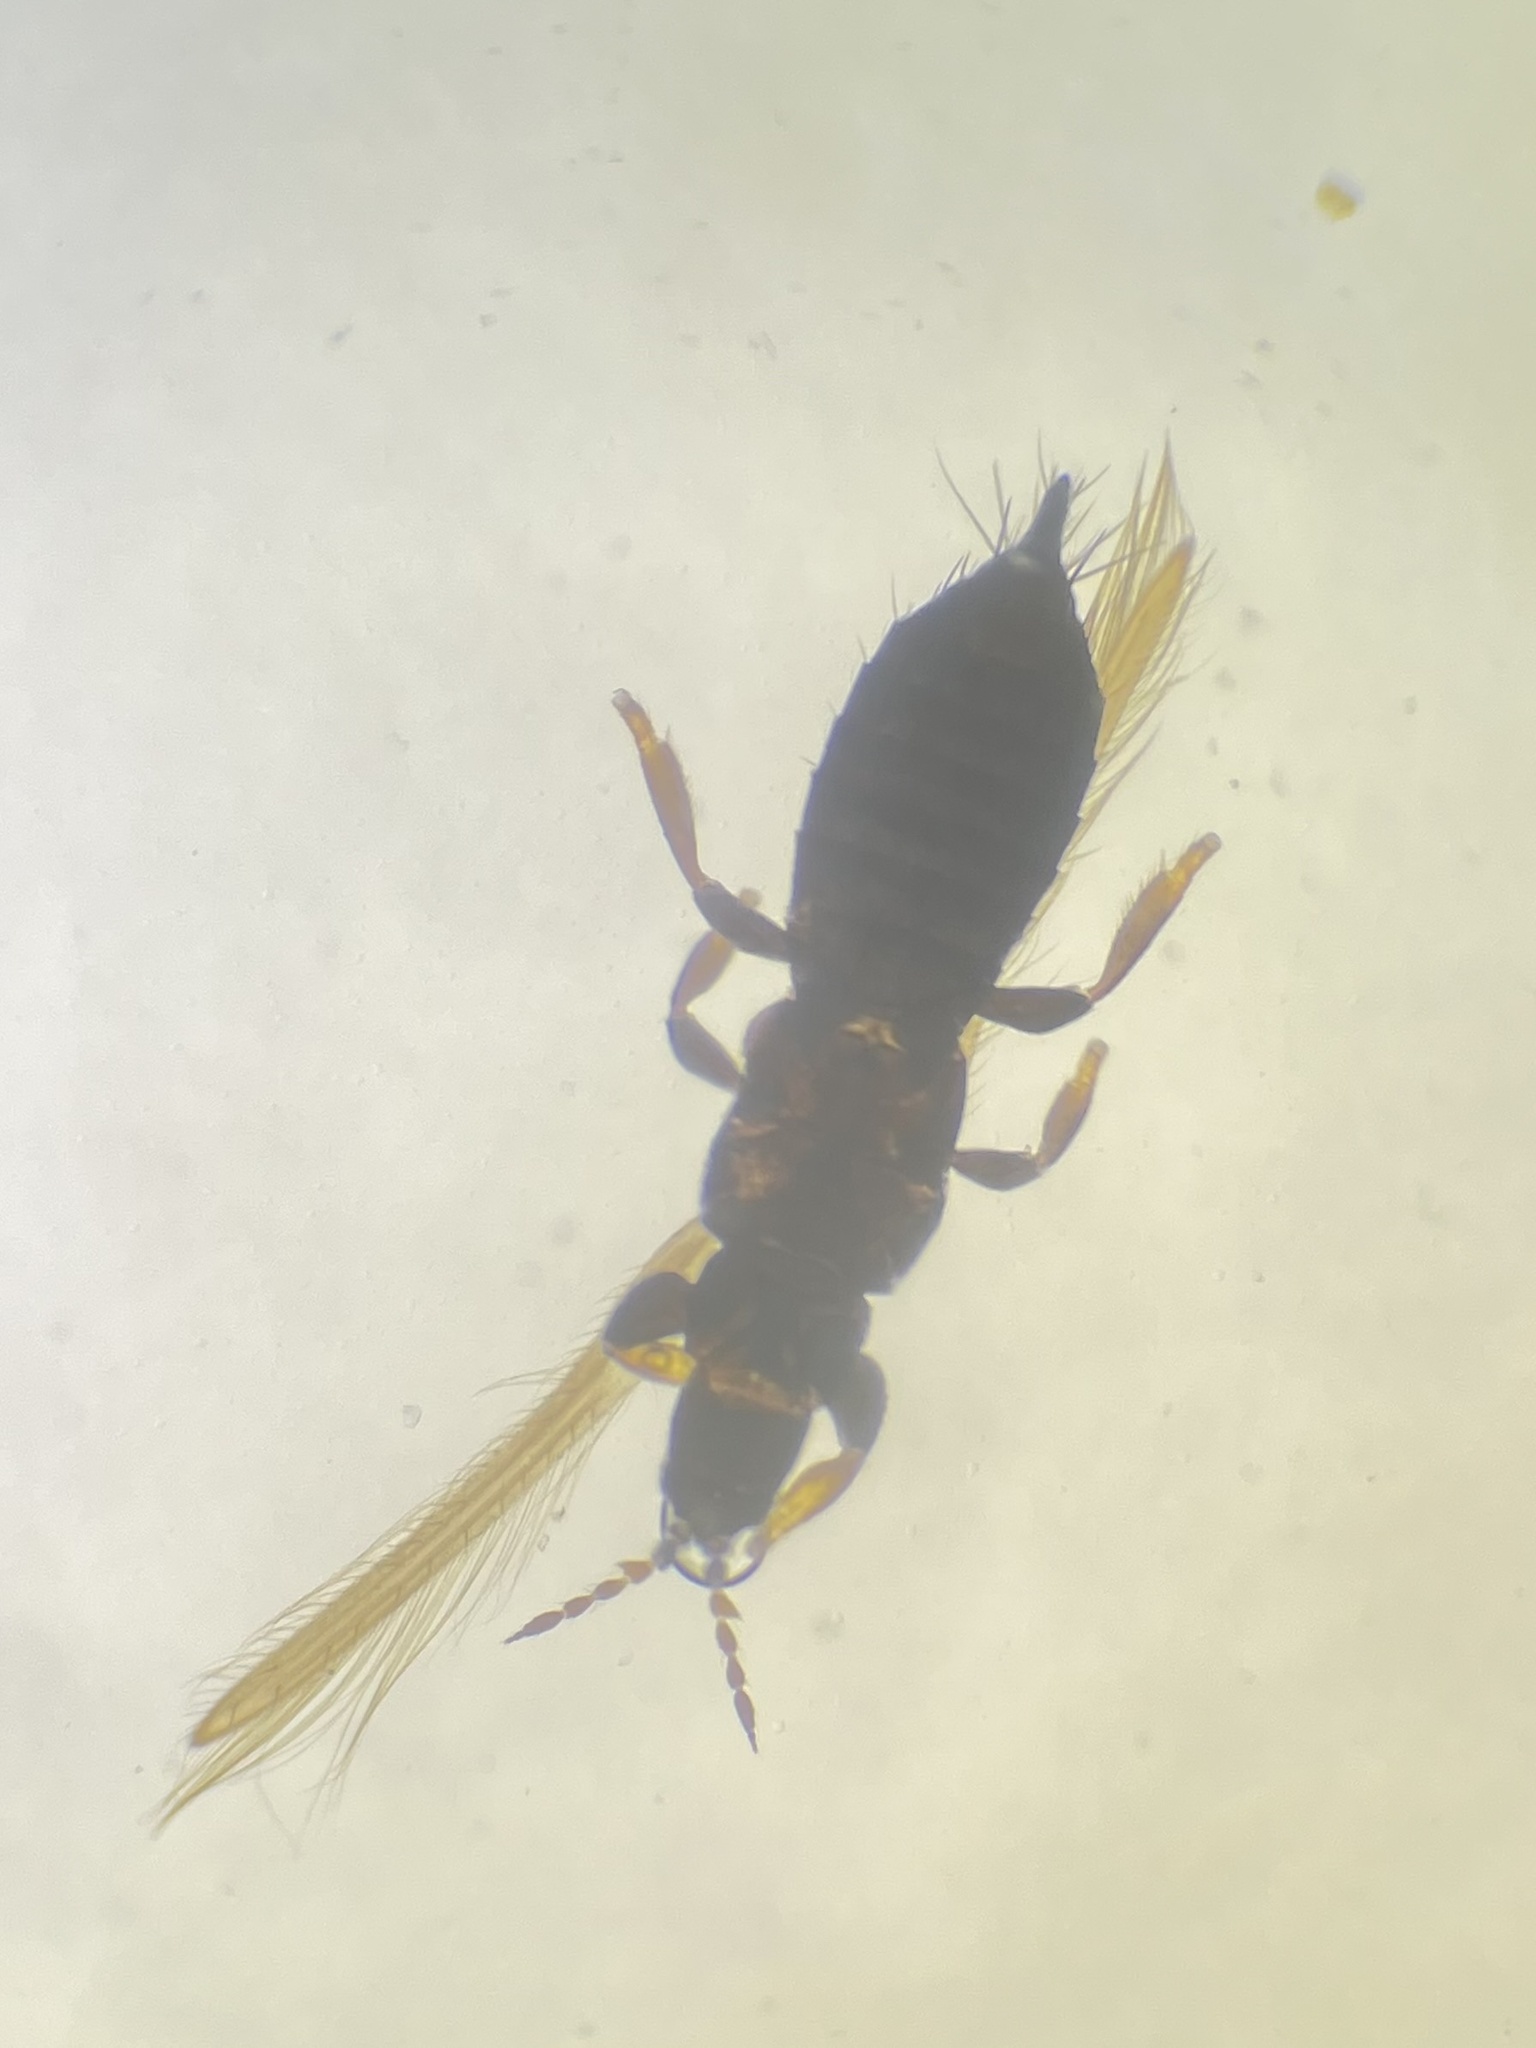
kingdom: Animalia
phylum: Arthropoda
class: Insecta
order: Thysanoptera
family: Thripidae
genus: Limothrips
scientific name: Limothrips denticornis
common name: Thrips
